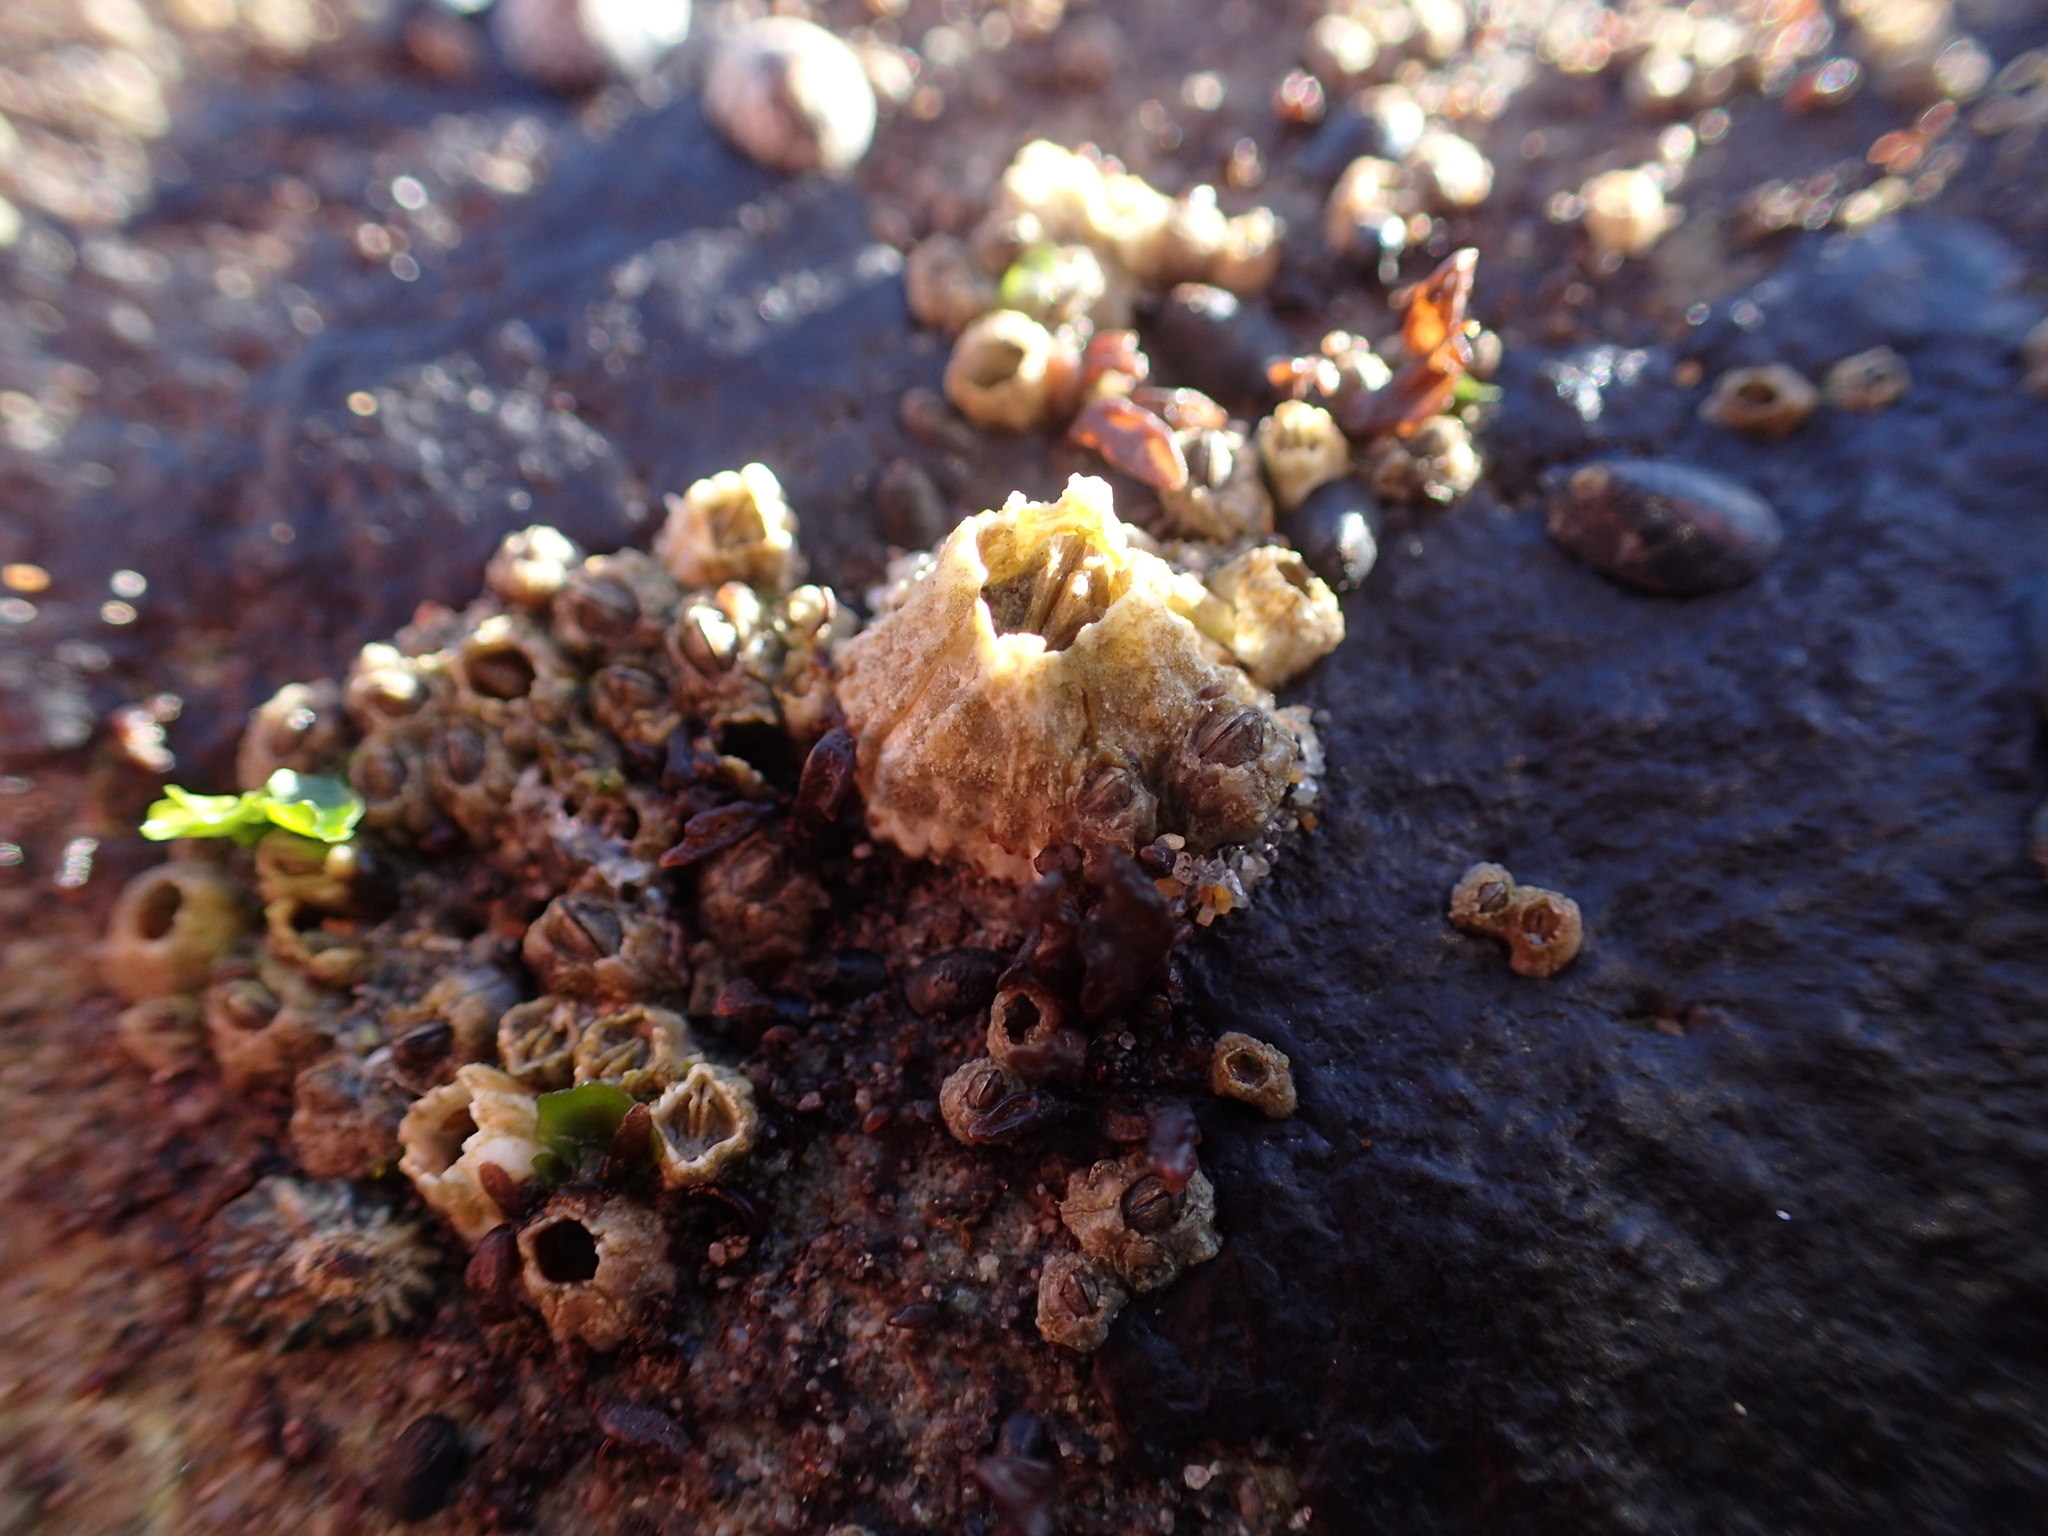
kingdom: Animalia
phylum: Arthropoda
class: Maxillopoda
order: Sessilia
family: Balanidae
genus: Balanus
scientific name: Balanus glandula
